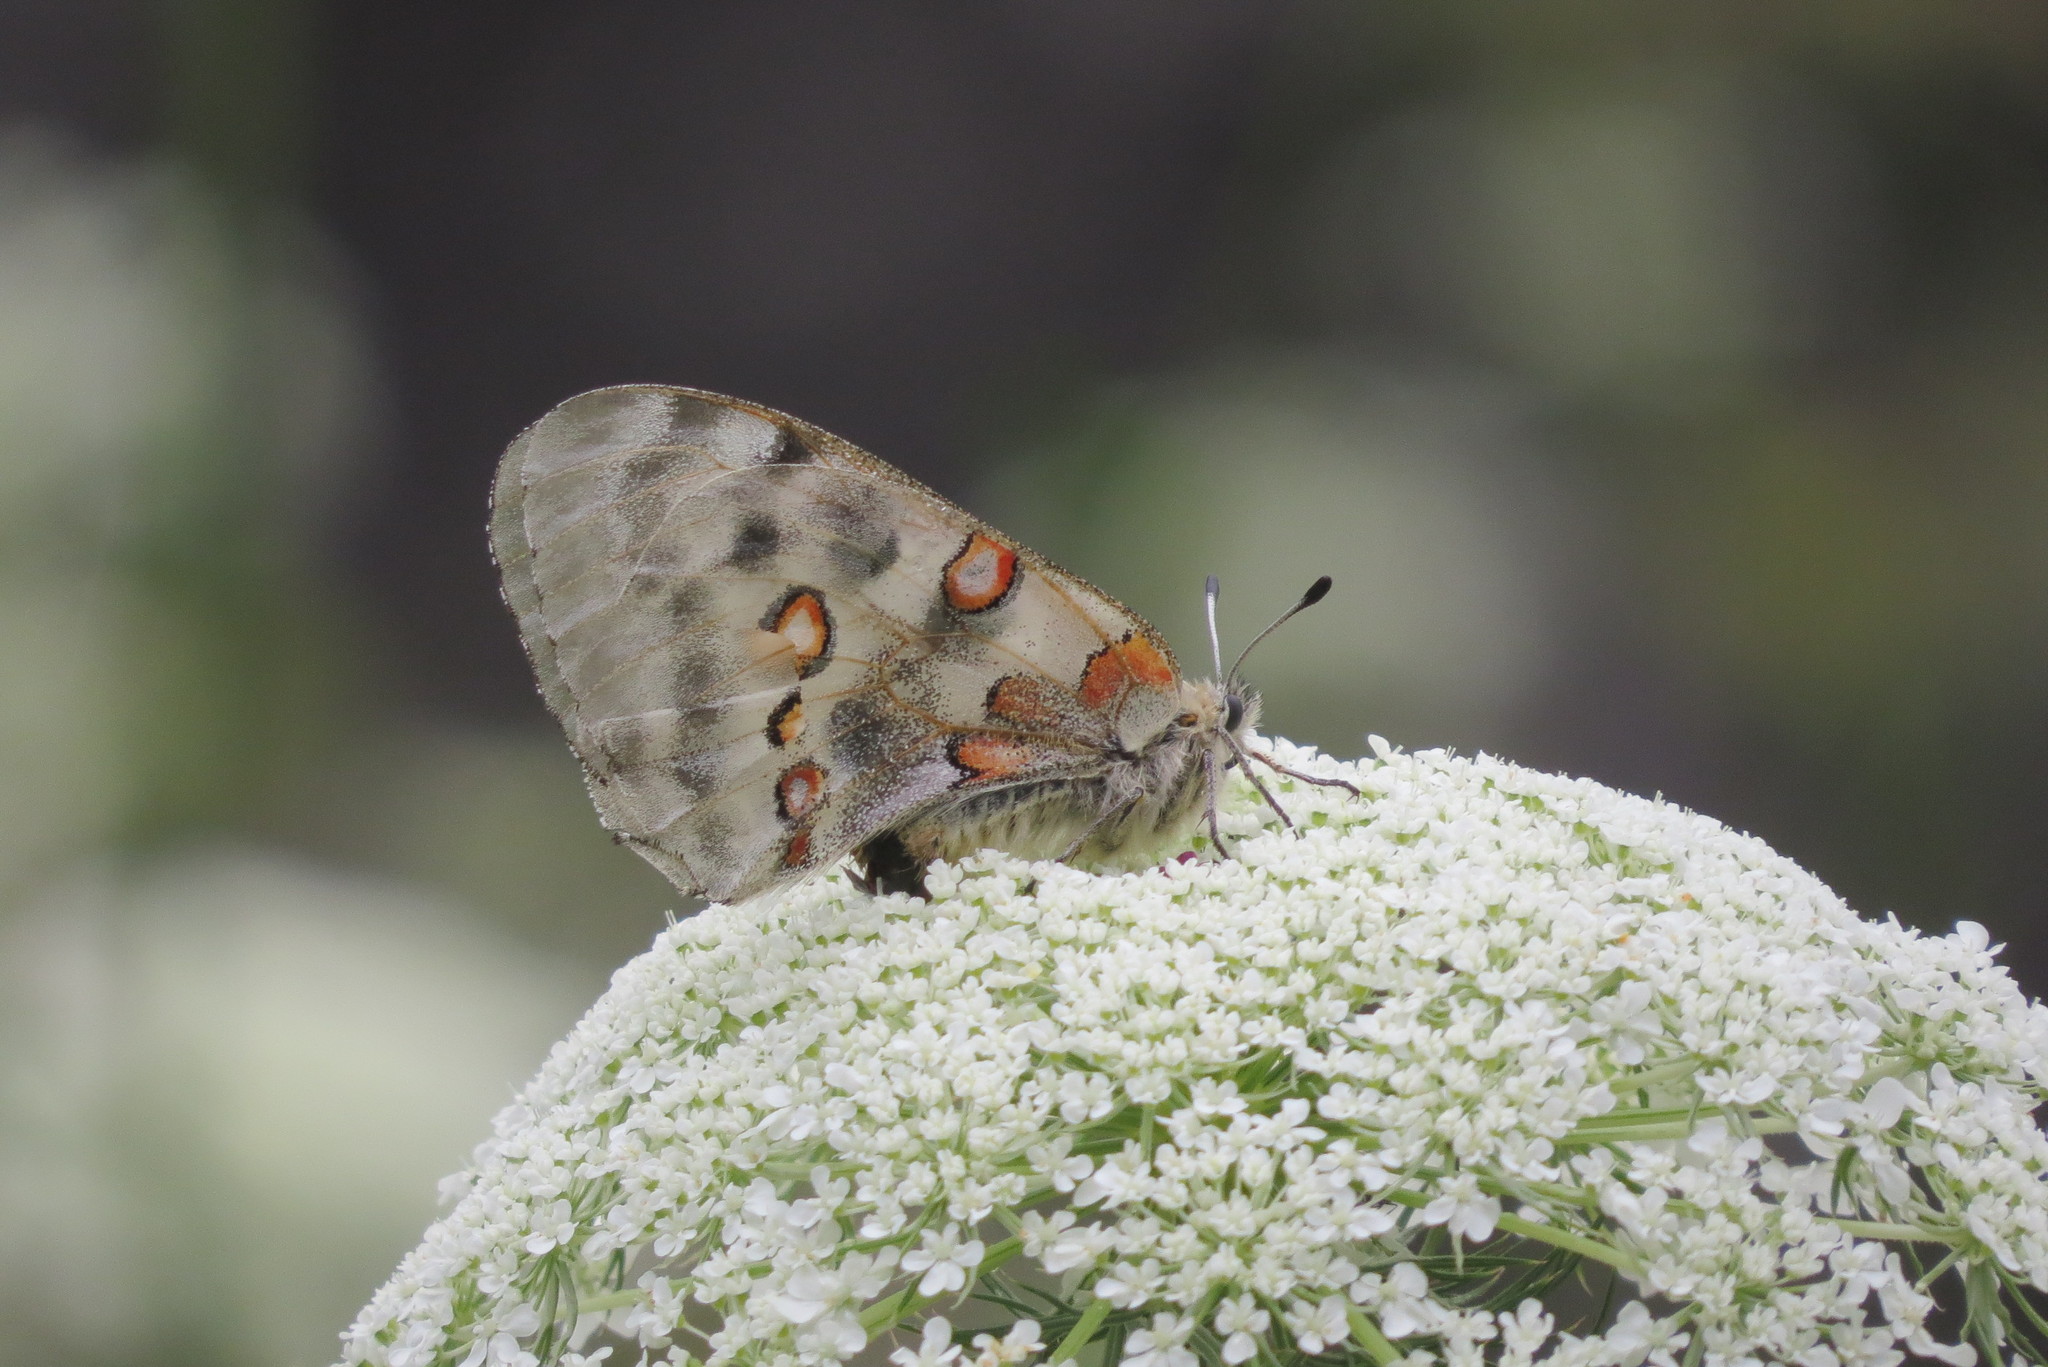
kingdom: Animalia
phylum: Arthropoda
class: Insecta
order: Lepidoptera
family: Papilionidae
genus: Parnassius
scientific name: Parnassius apollo
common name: Apollo
